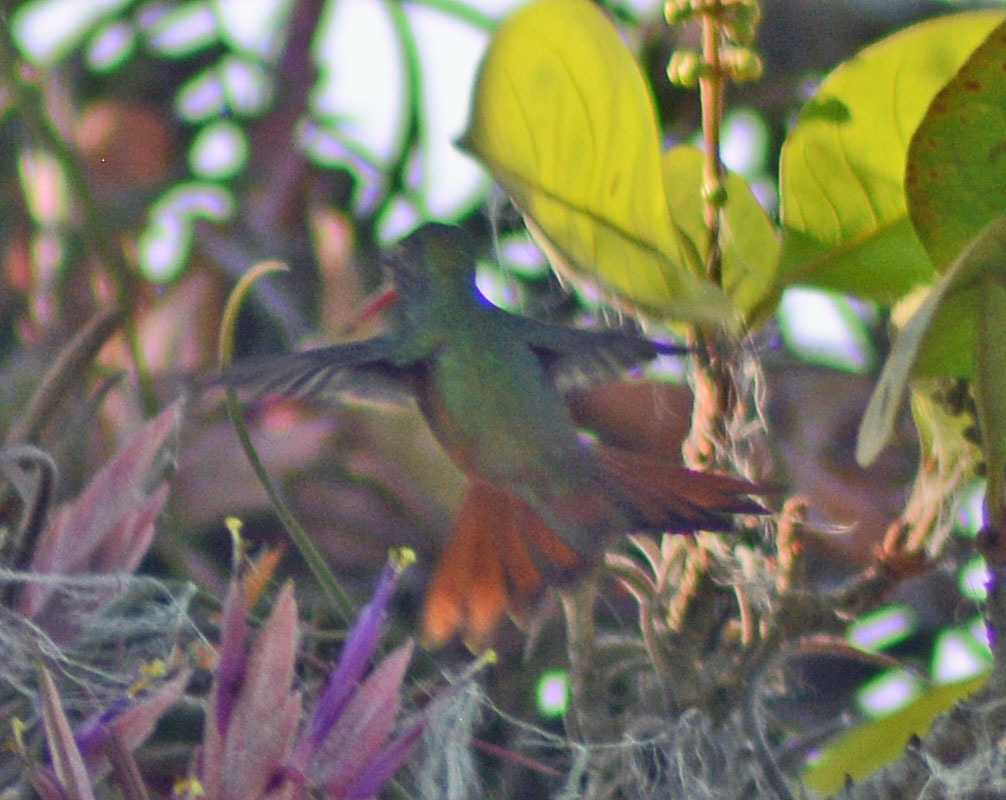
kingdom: Animalia
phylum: Chordata
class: Aves
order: Apodiformes
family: Trochilidae
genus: Amazilia
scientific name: Amazilia yucatanensis
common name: Buff-bellied hummingbird
